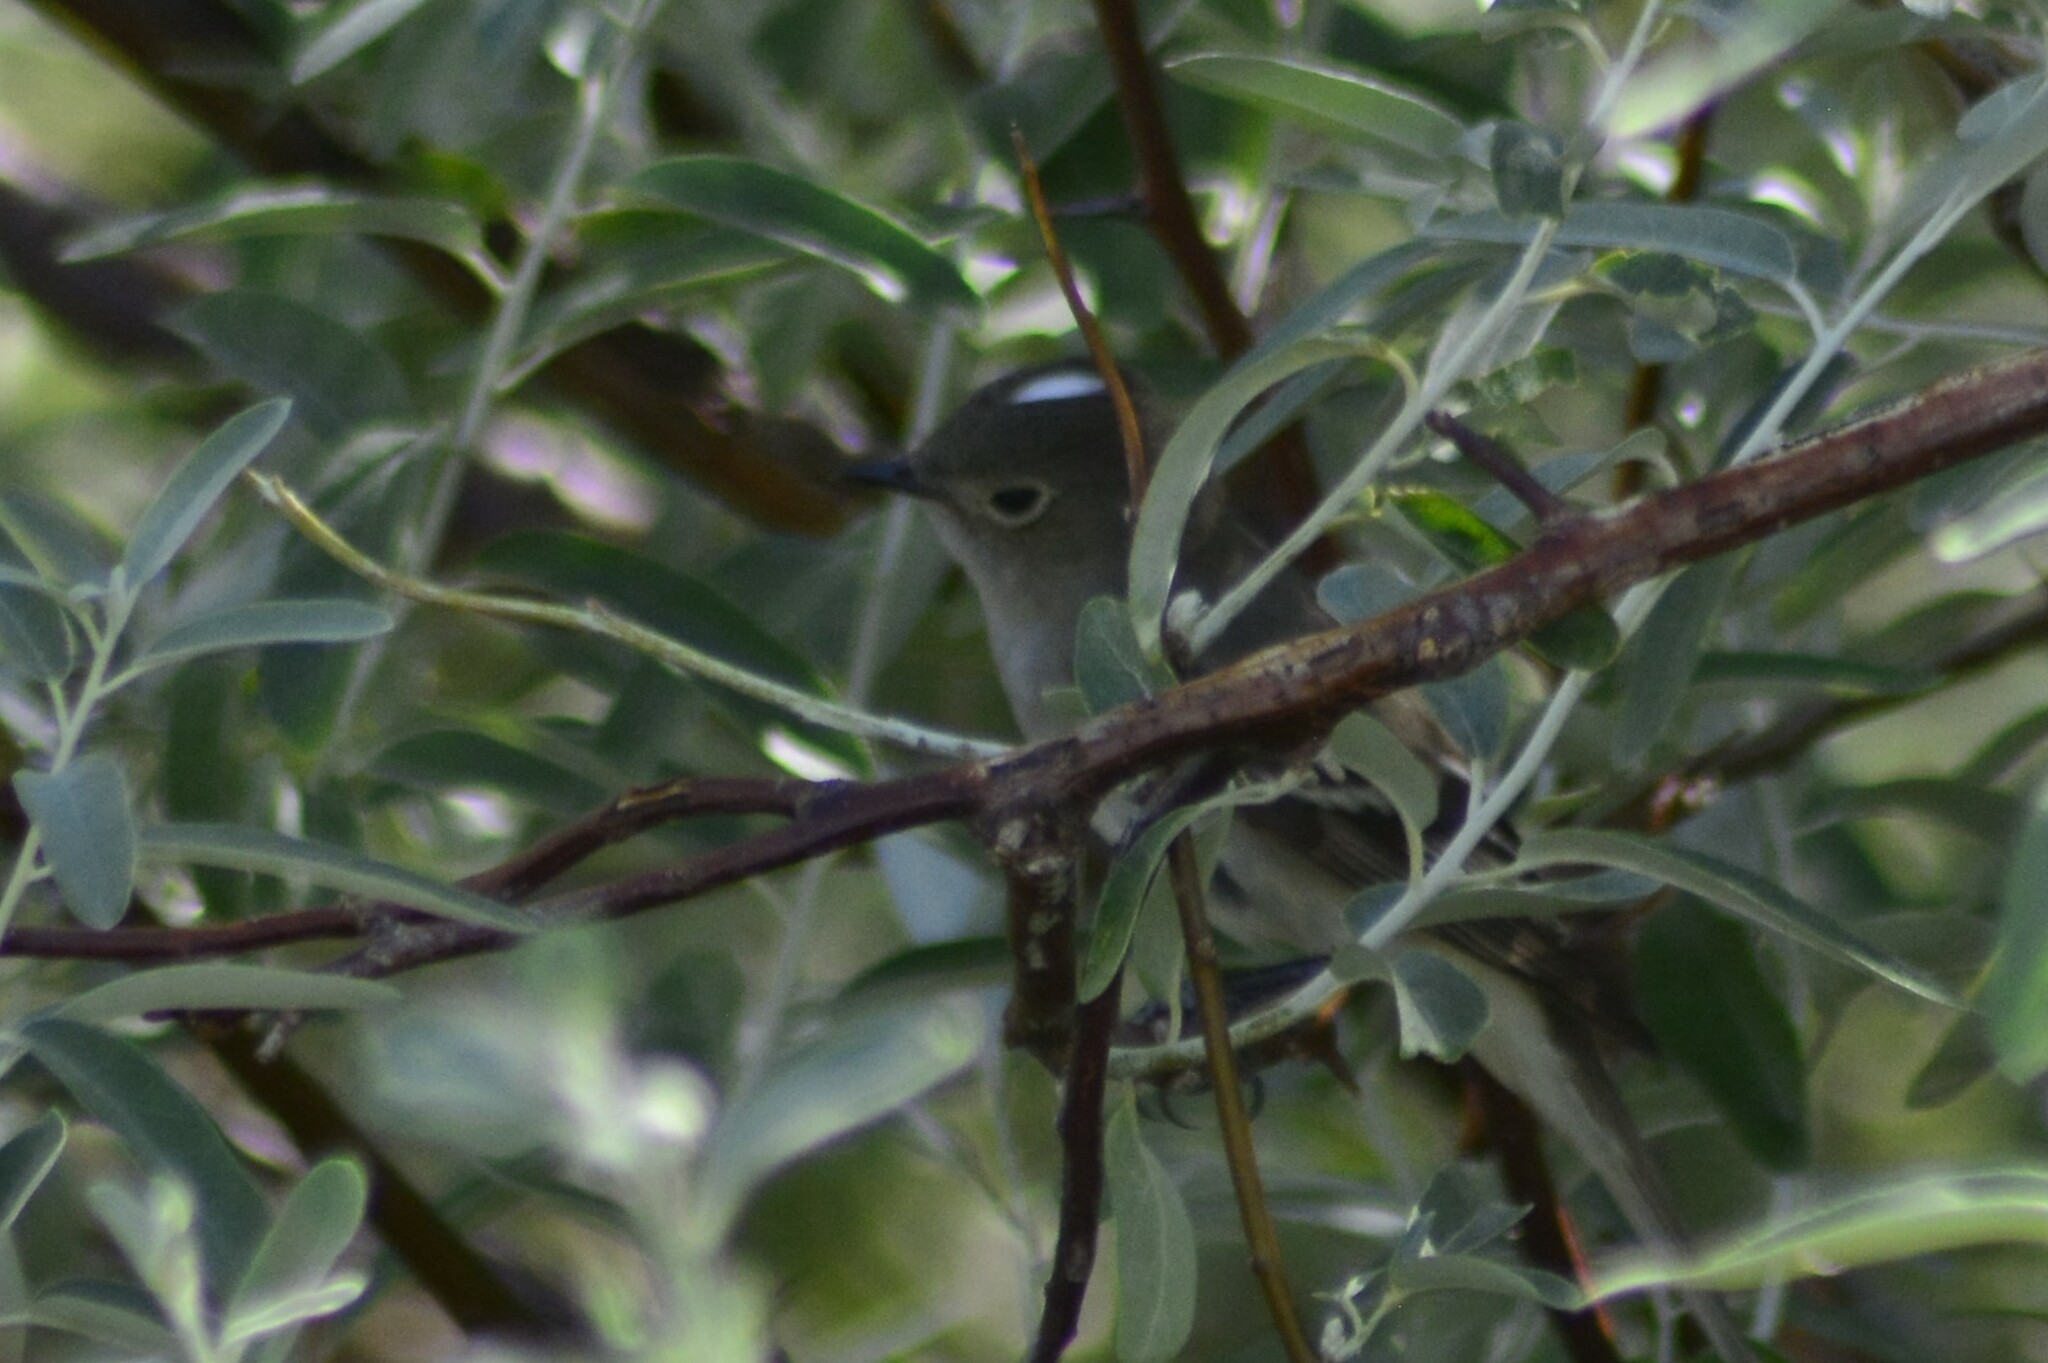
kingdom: Animalia
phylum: Chordata
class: Aves
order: Passeriformes
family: Tyrannidae
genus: Elaenia
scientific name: Elaenia albiceps
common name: White-crested elaenia
